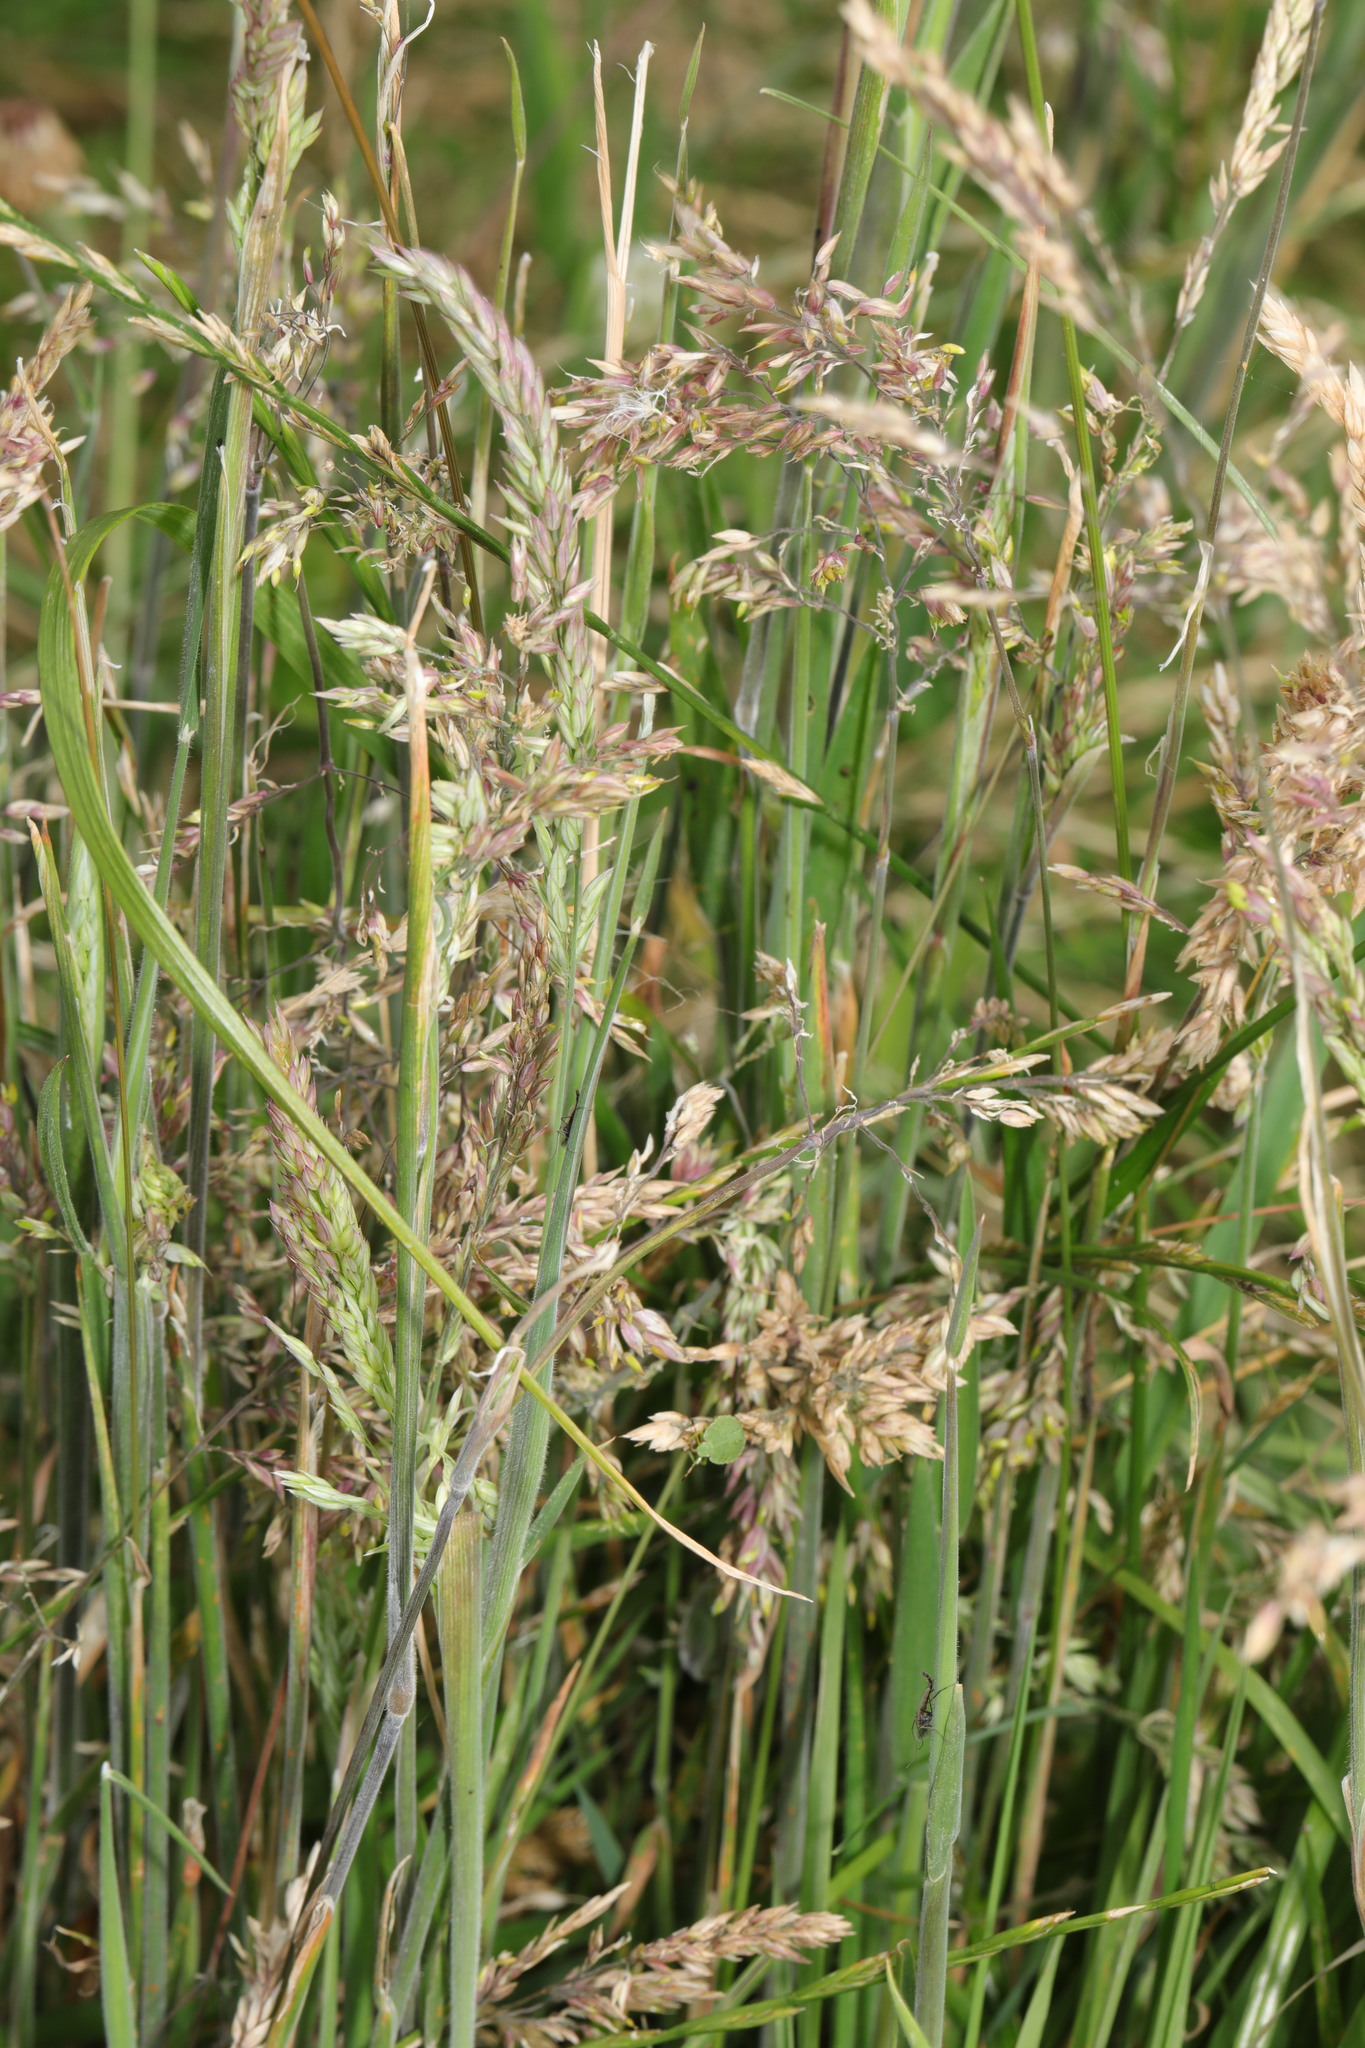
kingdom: Plantae
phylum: Tracheophyta
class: Liliopsida
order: Poales
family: Poaceae
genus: Holcus
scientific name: Holcus lanatus
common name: Yorkshire-fog
